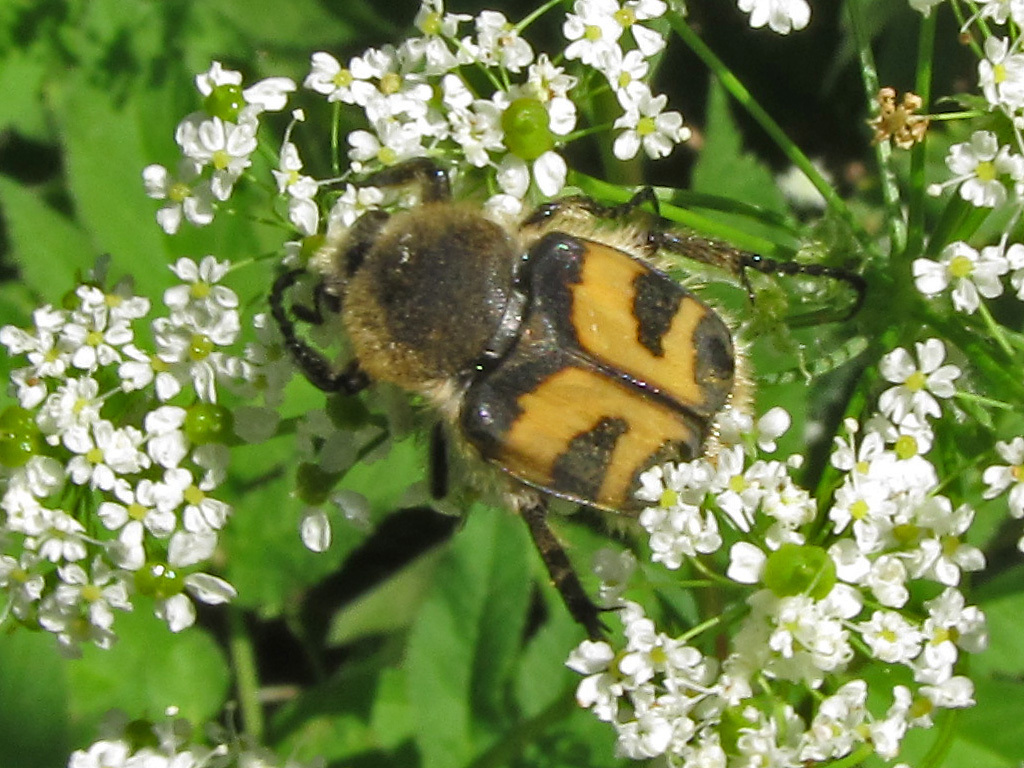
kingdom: Animalia
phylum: Arthropoda
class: Insecta
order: Coleoptera
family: Scarabaeidae
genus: Trichius
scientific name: Trichius fasciatus
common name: Bee beetle
